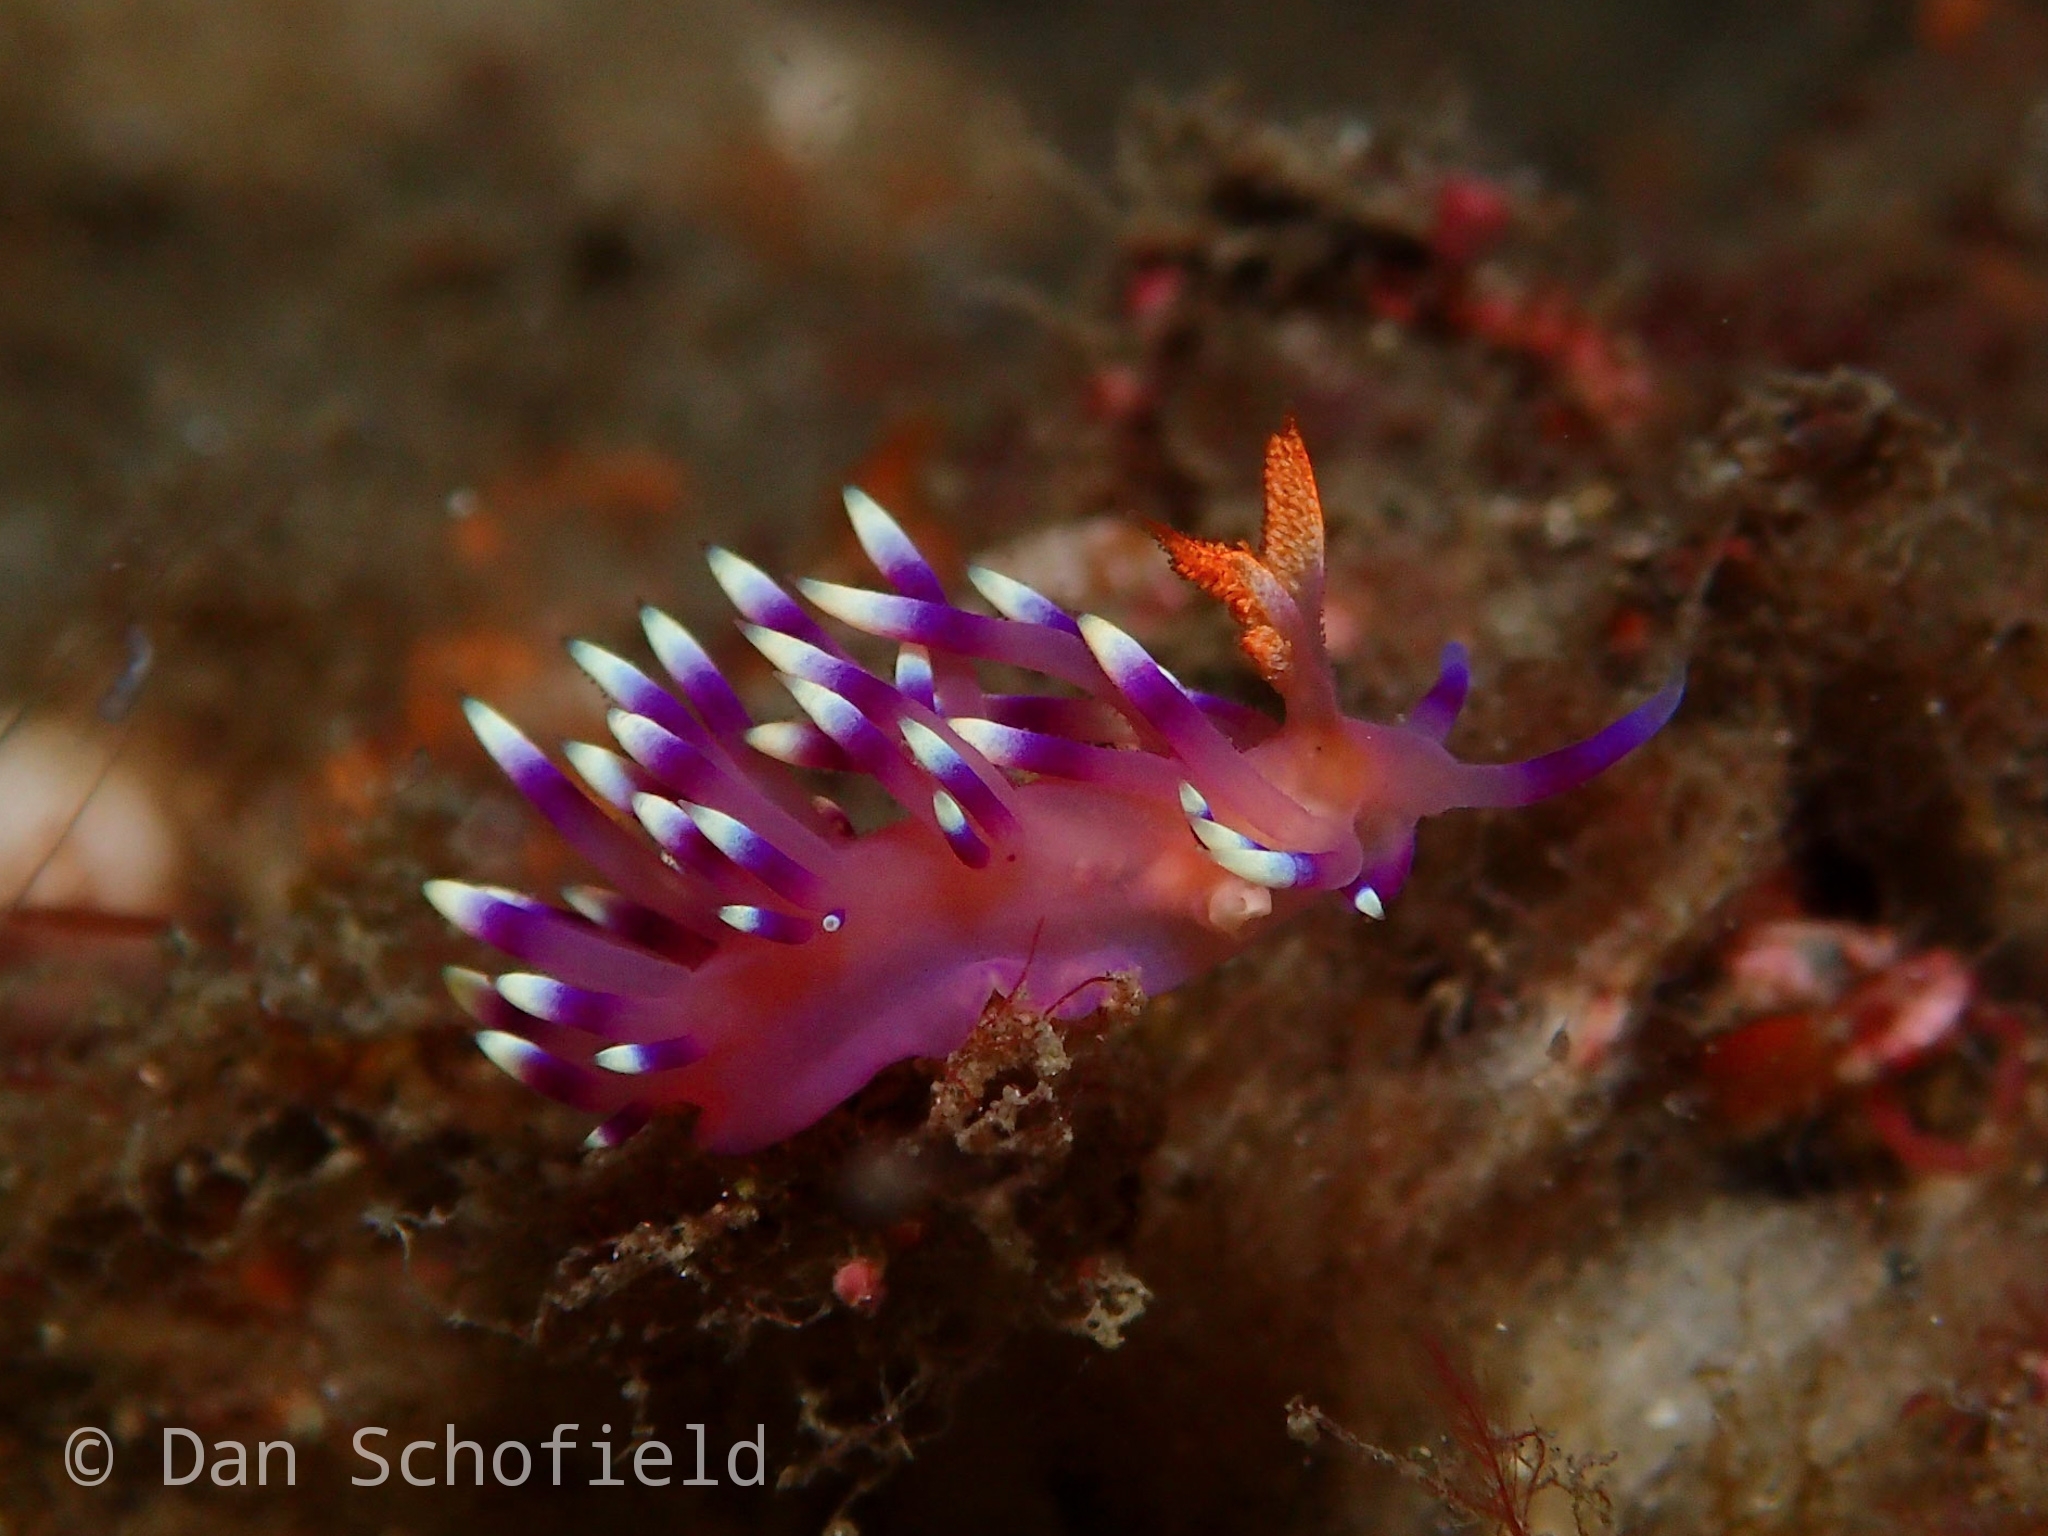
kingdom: Animalia
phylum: Mollusca
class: Gastropoda
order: Nudibranchia
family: Flabellinidae
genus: Coryphellina
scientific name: Coryphellina exoptata
